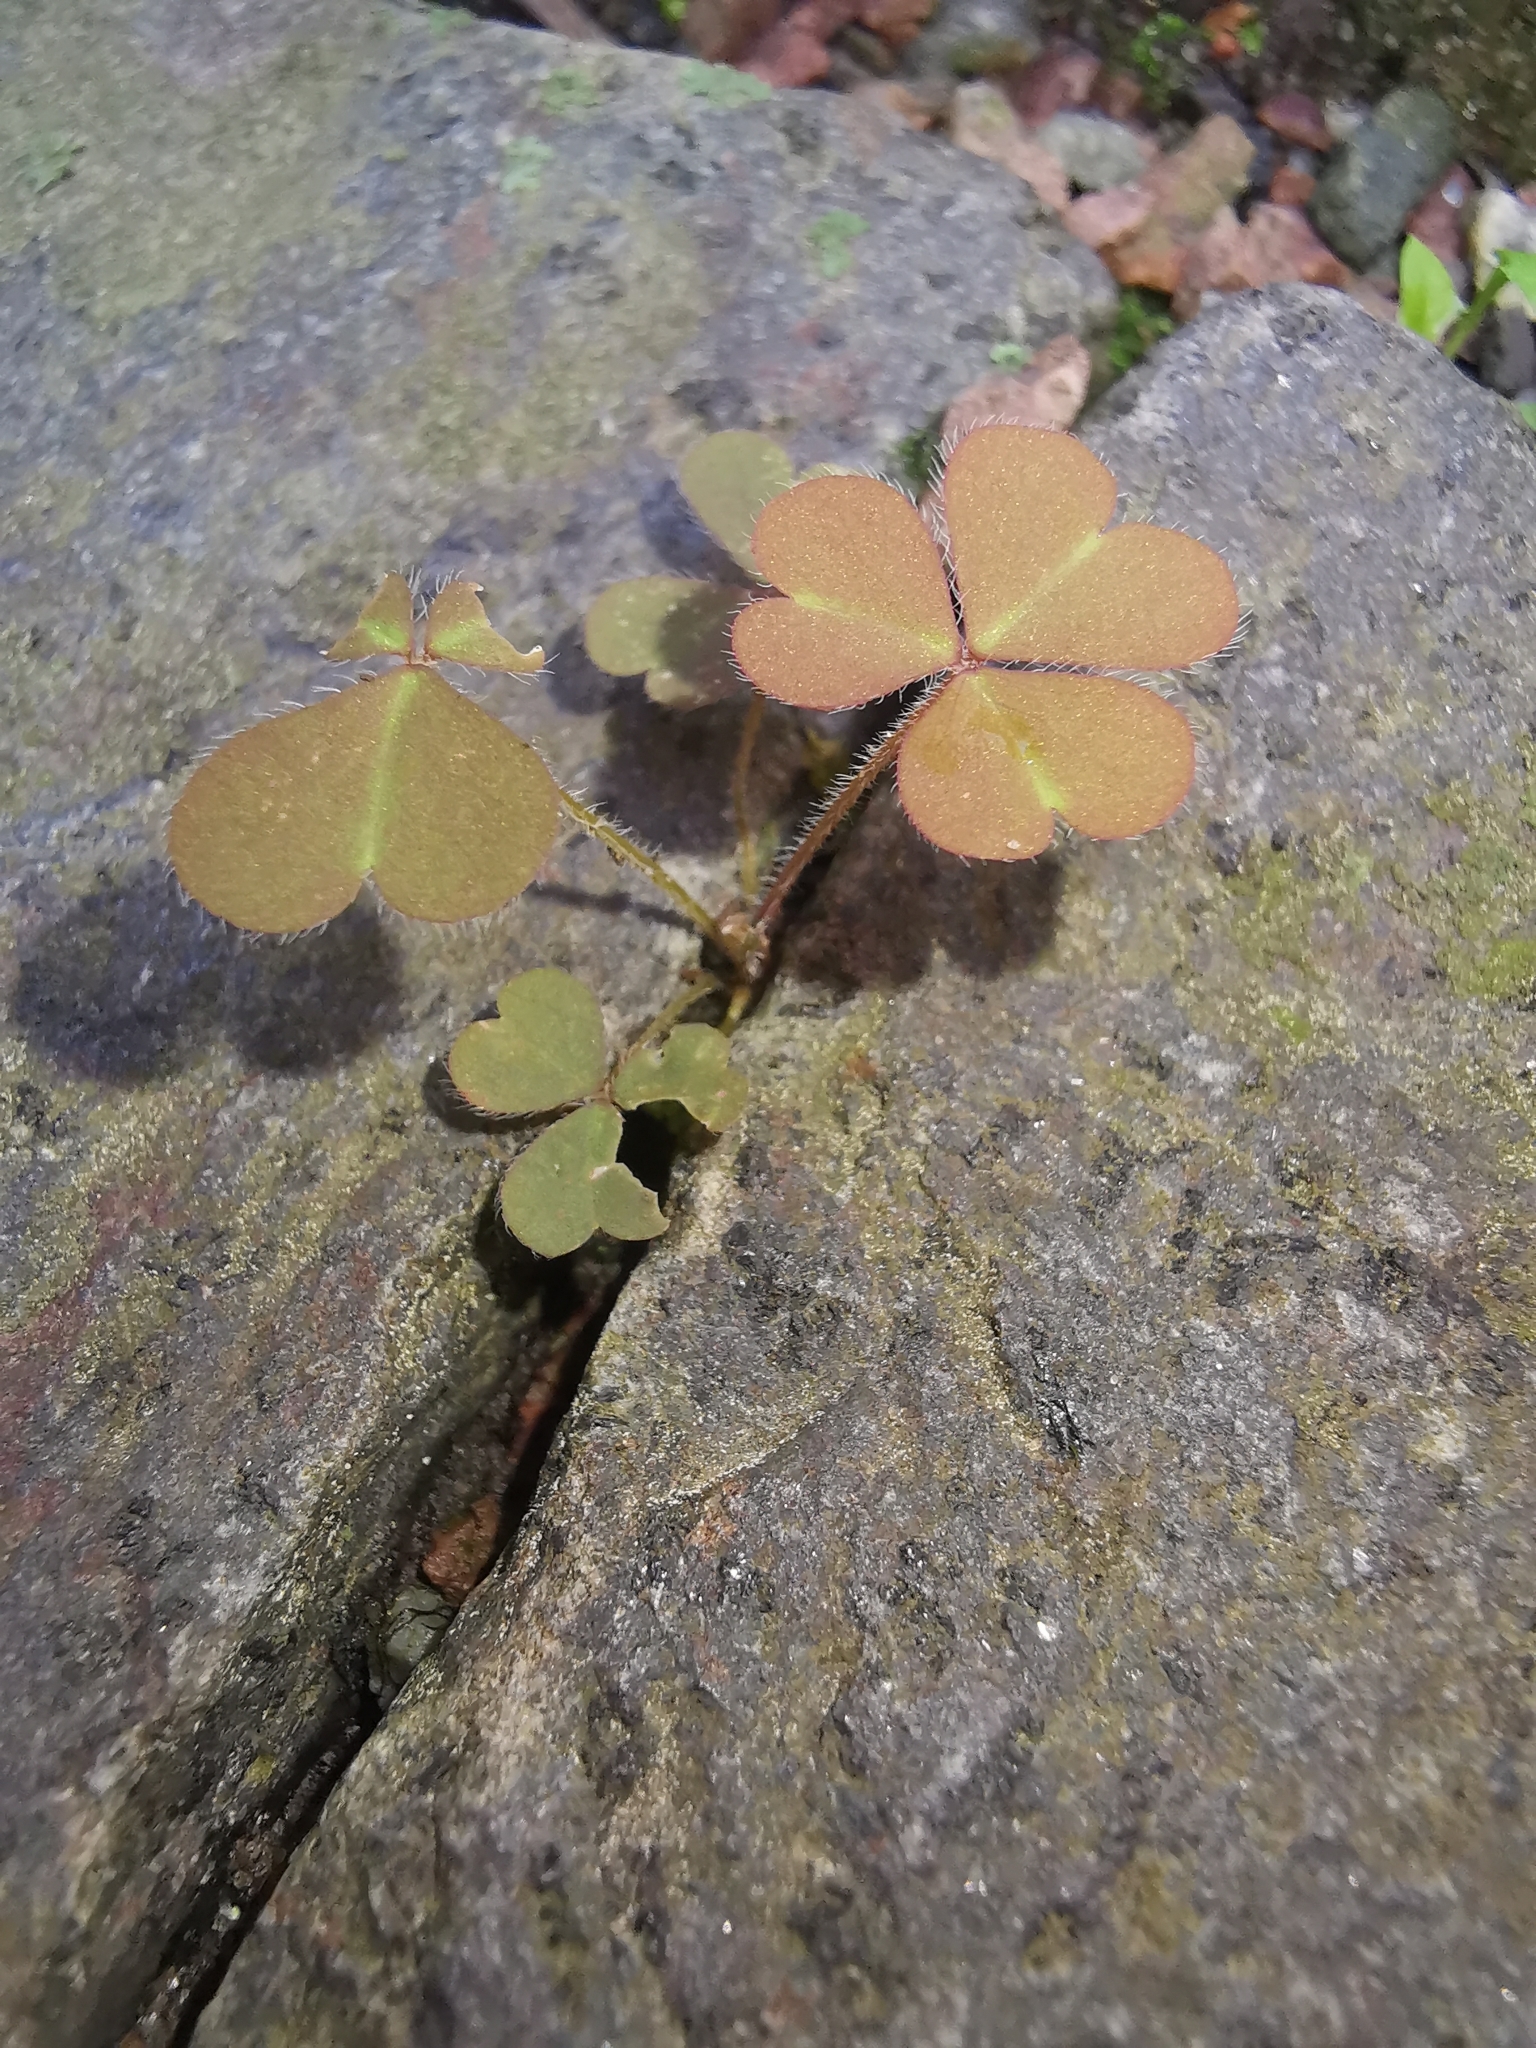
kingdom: Plantae
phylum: Tracheophyta
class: Magnoliopsida
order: Oxalidales
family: Oxalidaceae
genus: Oxalis
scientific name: Oxalis corniculata
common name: Procumbent yellow-sorrel
